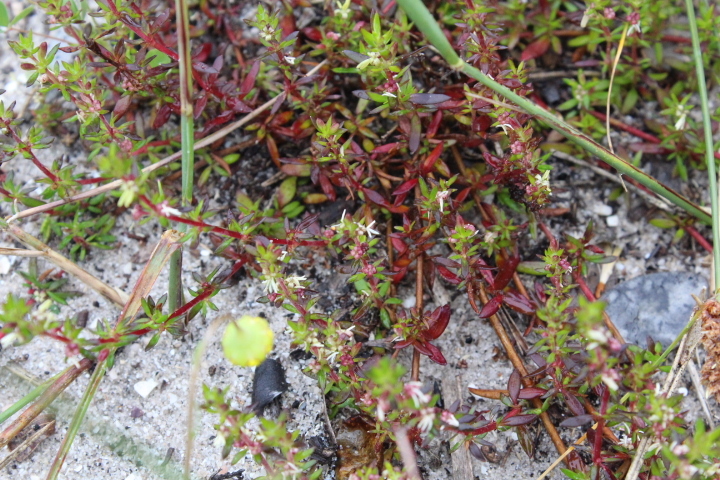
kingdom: Plantae
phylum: Tracheophyta
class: Magnoliopsida
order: Gentianales
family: Rubiaceae
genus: Anthospermum
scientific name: Anthospermum prostratum
